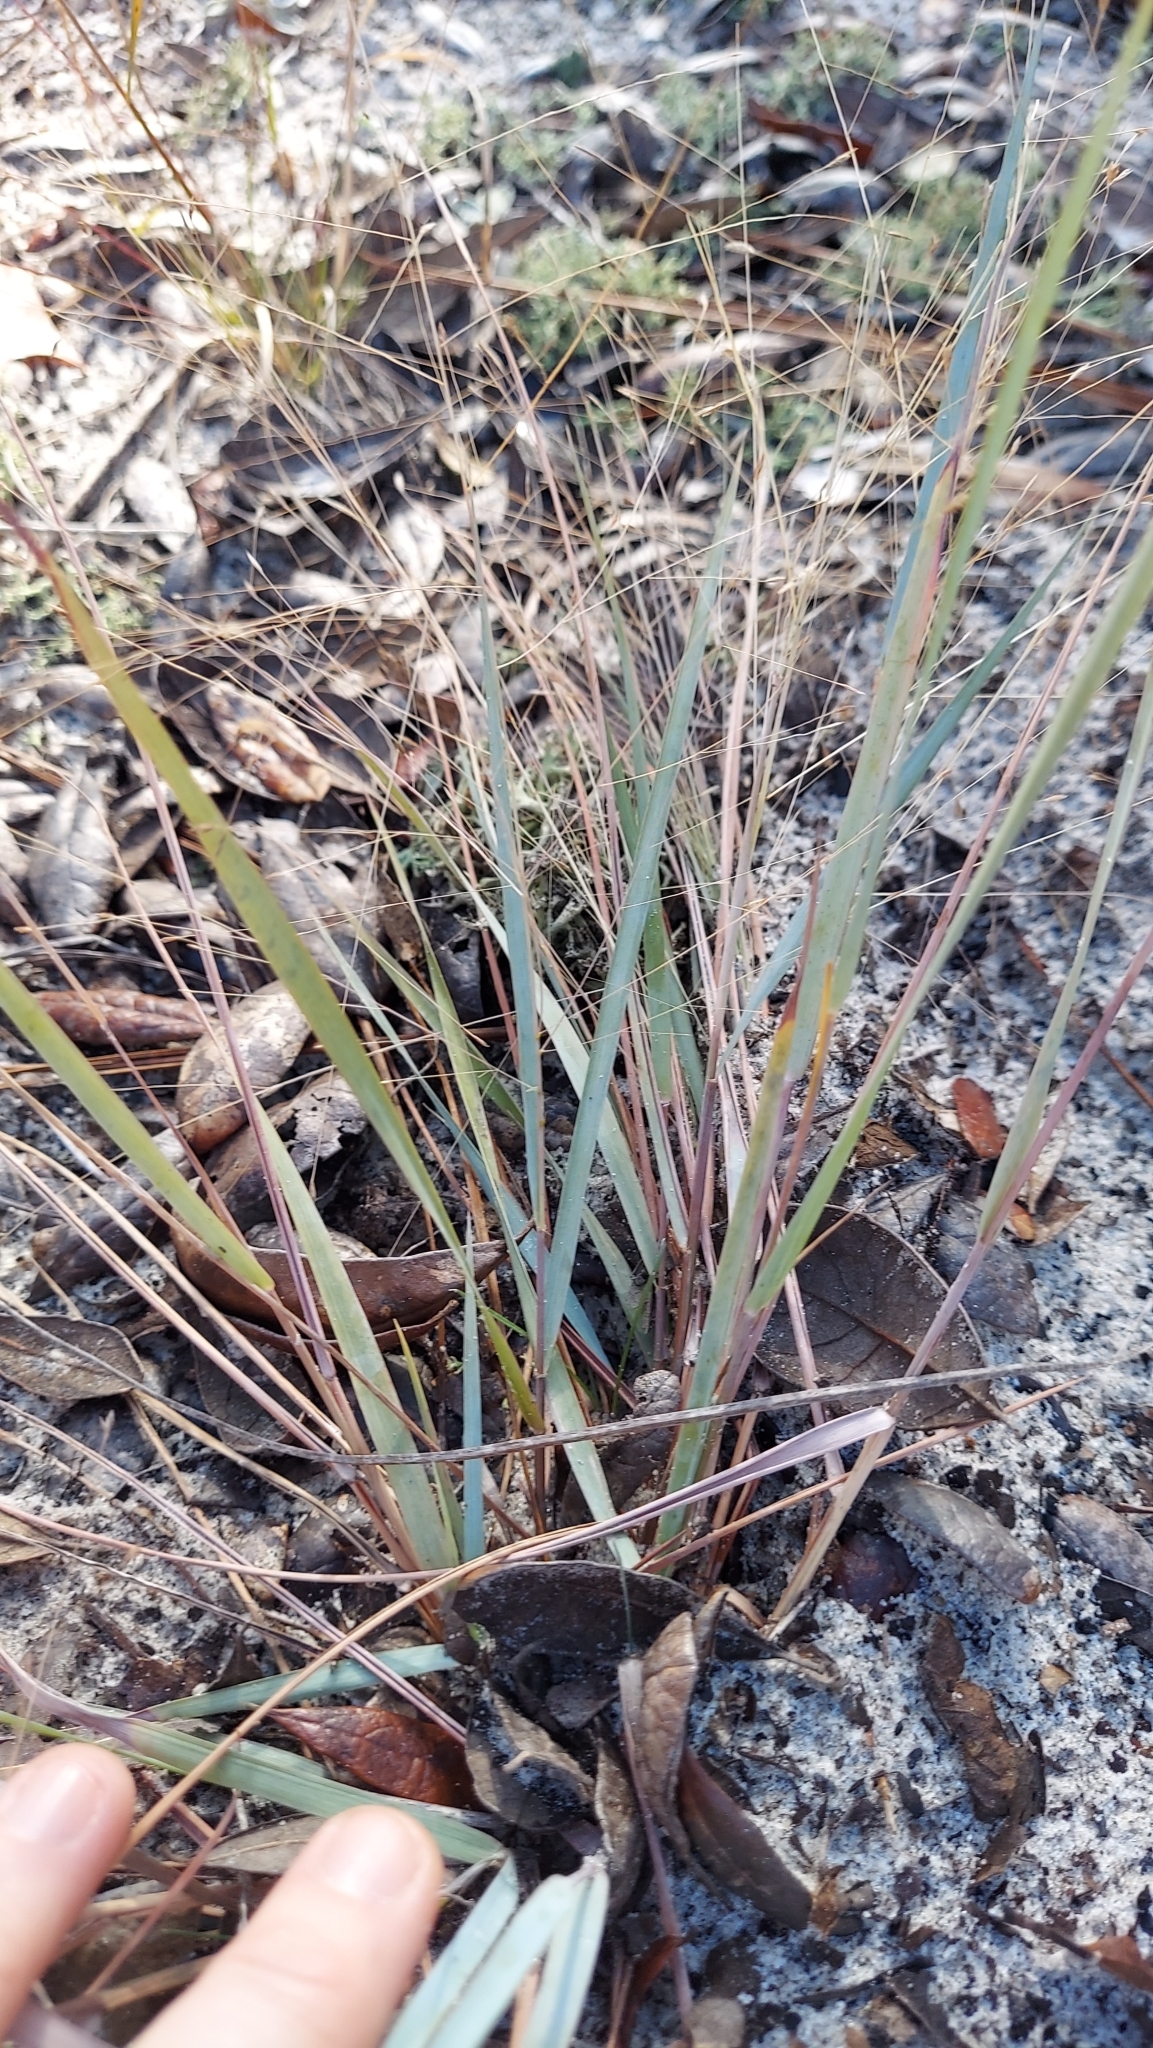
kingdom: Plantae
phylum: Tracheophyta
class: Liliopsida
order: Poales
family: Poaceae
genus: Eragrostis
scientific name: Eragrostis elliottii
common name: Elliott's love grass
